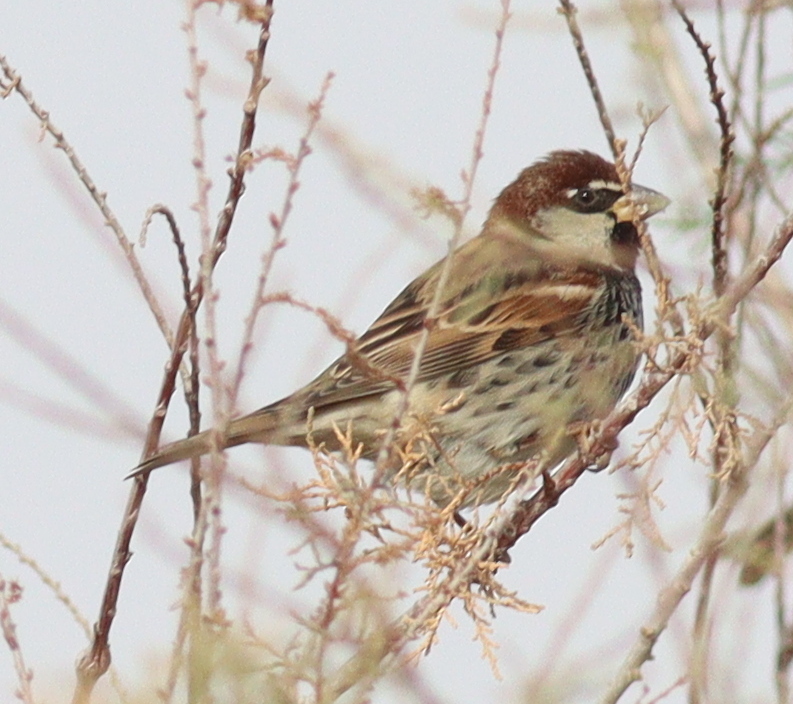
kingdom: Animalia
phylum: Chordata
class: Aves
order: Passeriformes
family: Passeridae
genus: Passer
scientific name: Passer hispaniolensis
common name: Spanish sparrow
